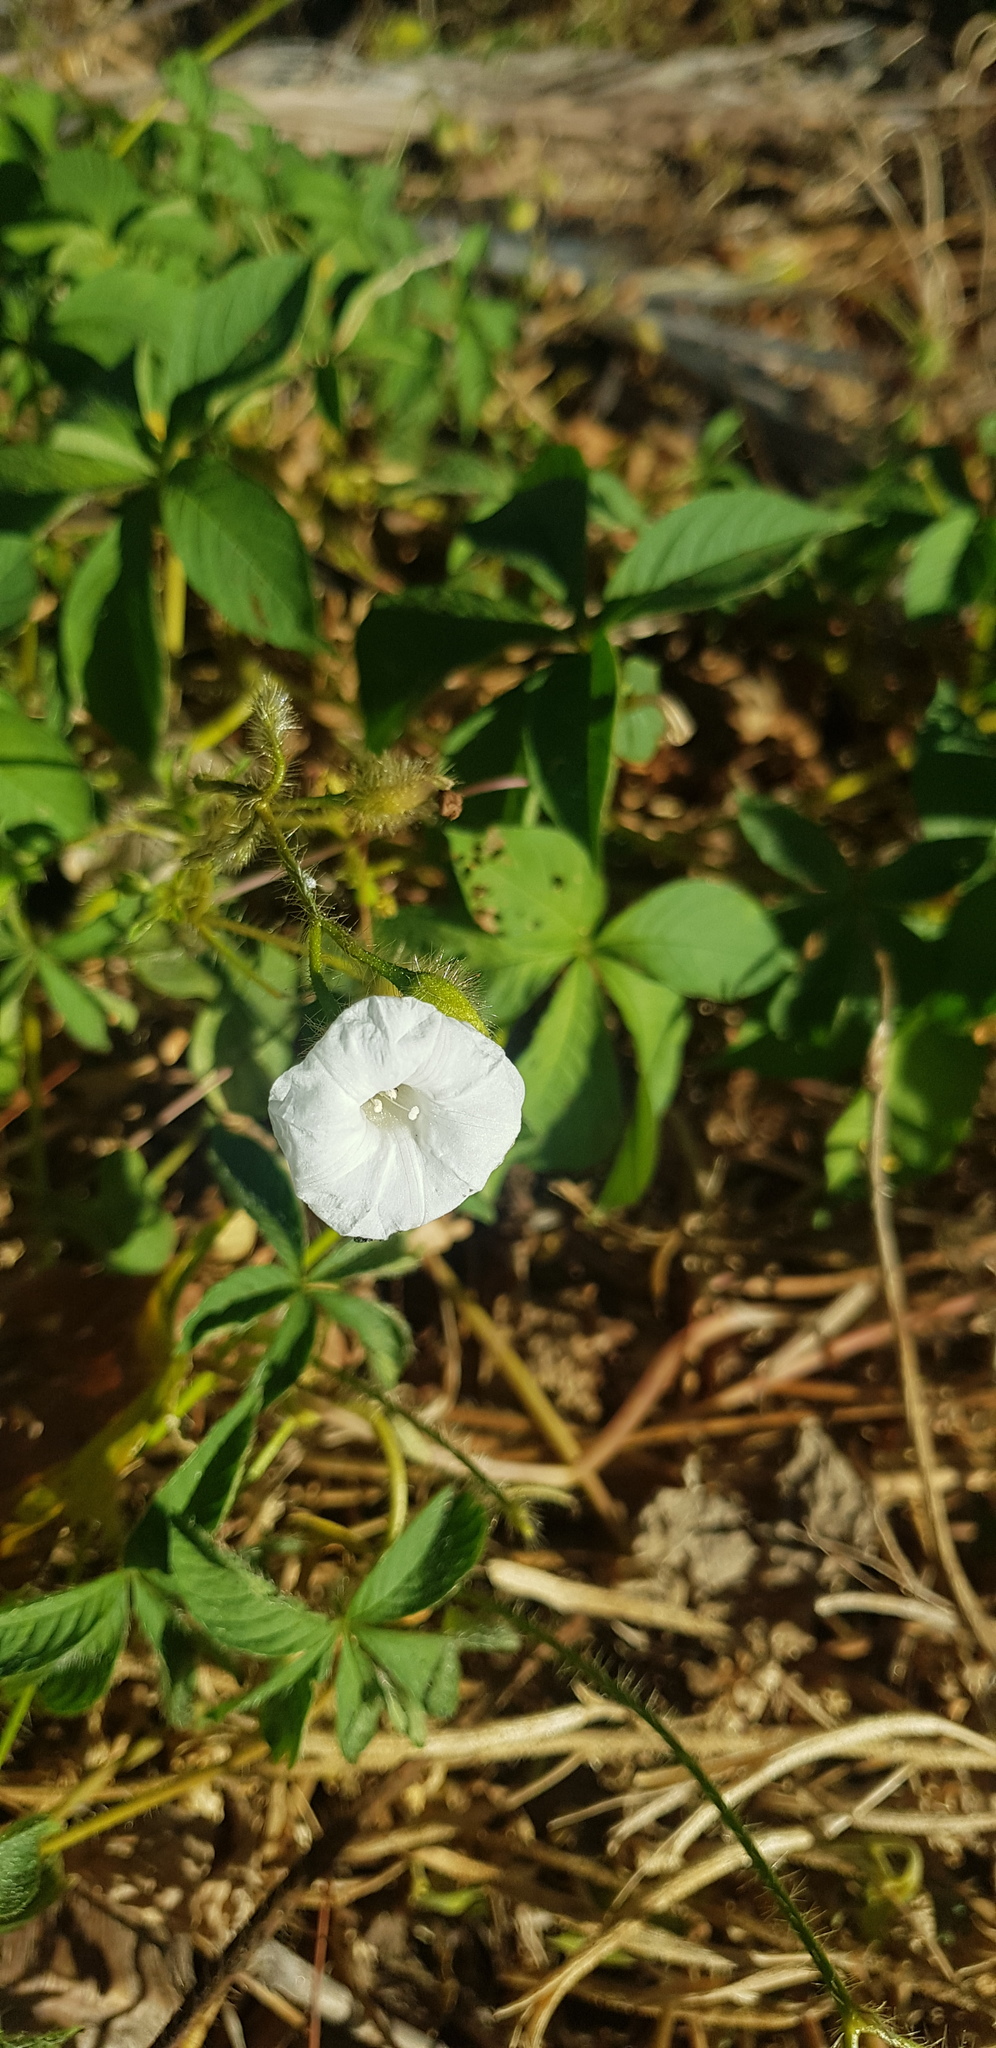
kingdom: Plantae
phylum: Tracheophyta
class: Magnoliopsida
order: Solanales
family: Convolvulaceae
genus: Distimake
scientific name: Distimake aegyptius
